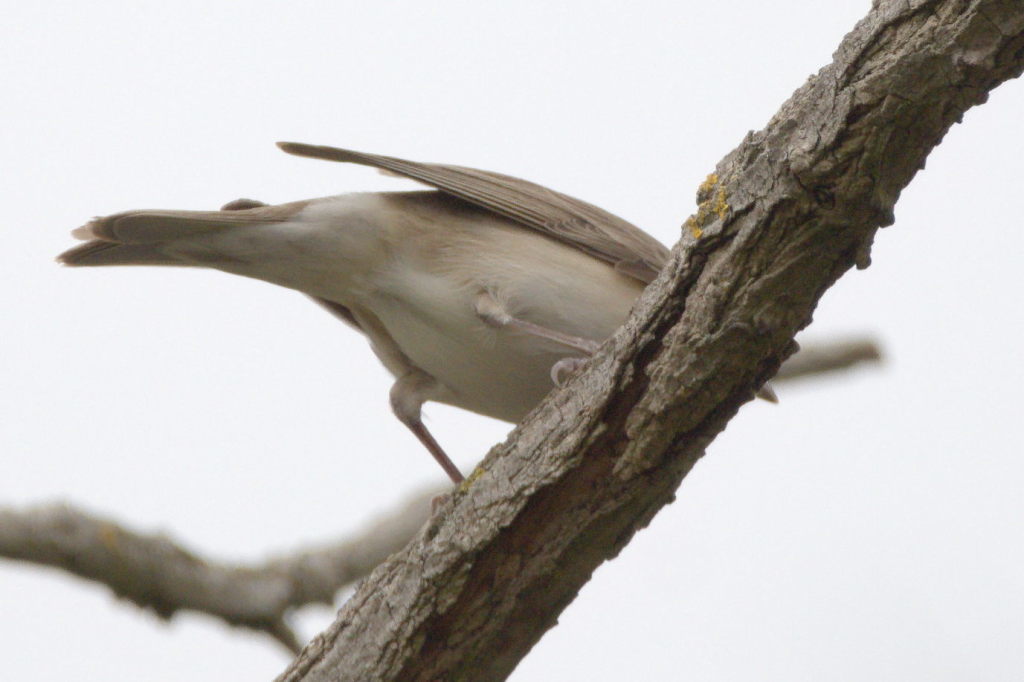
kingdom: Animalia
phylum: Chordata
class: Aves
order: Passeriformes
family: Sylviidae
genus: Sylvia
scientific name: Sylvia borin
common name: Garden warbler
